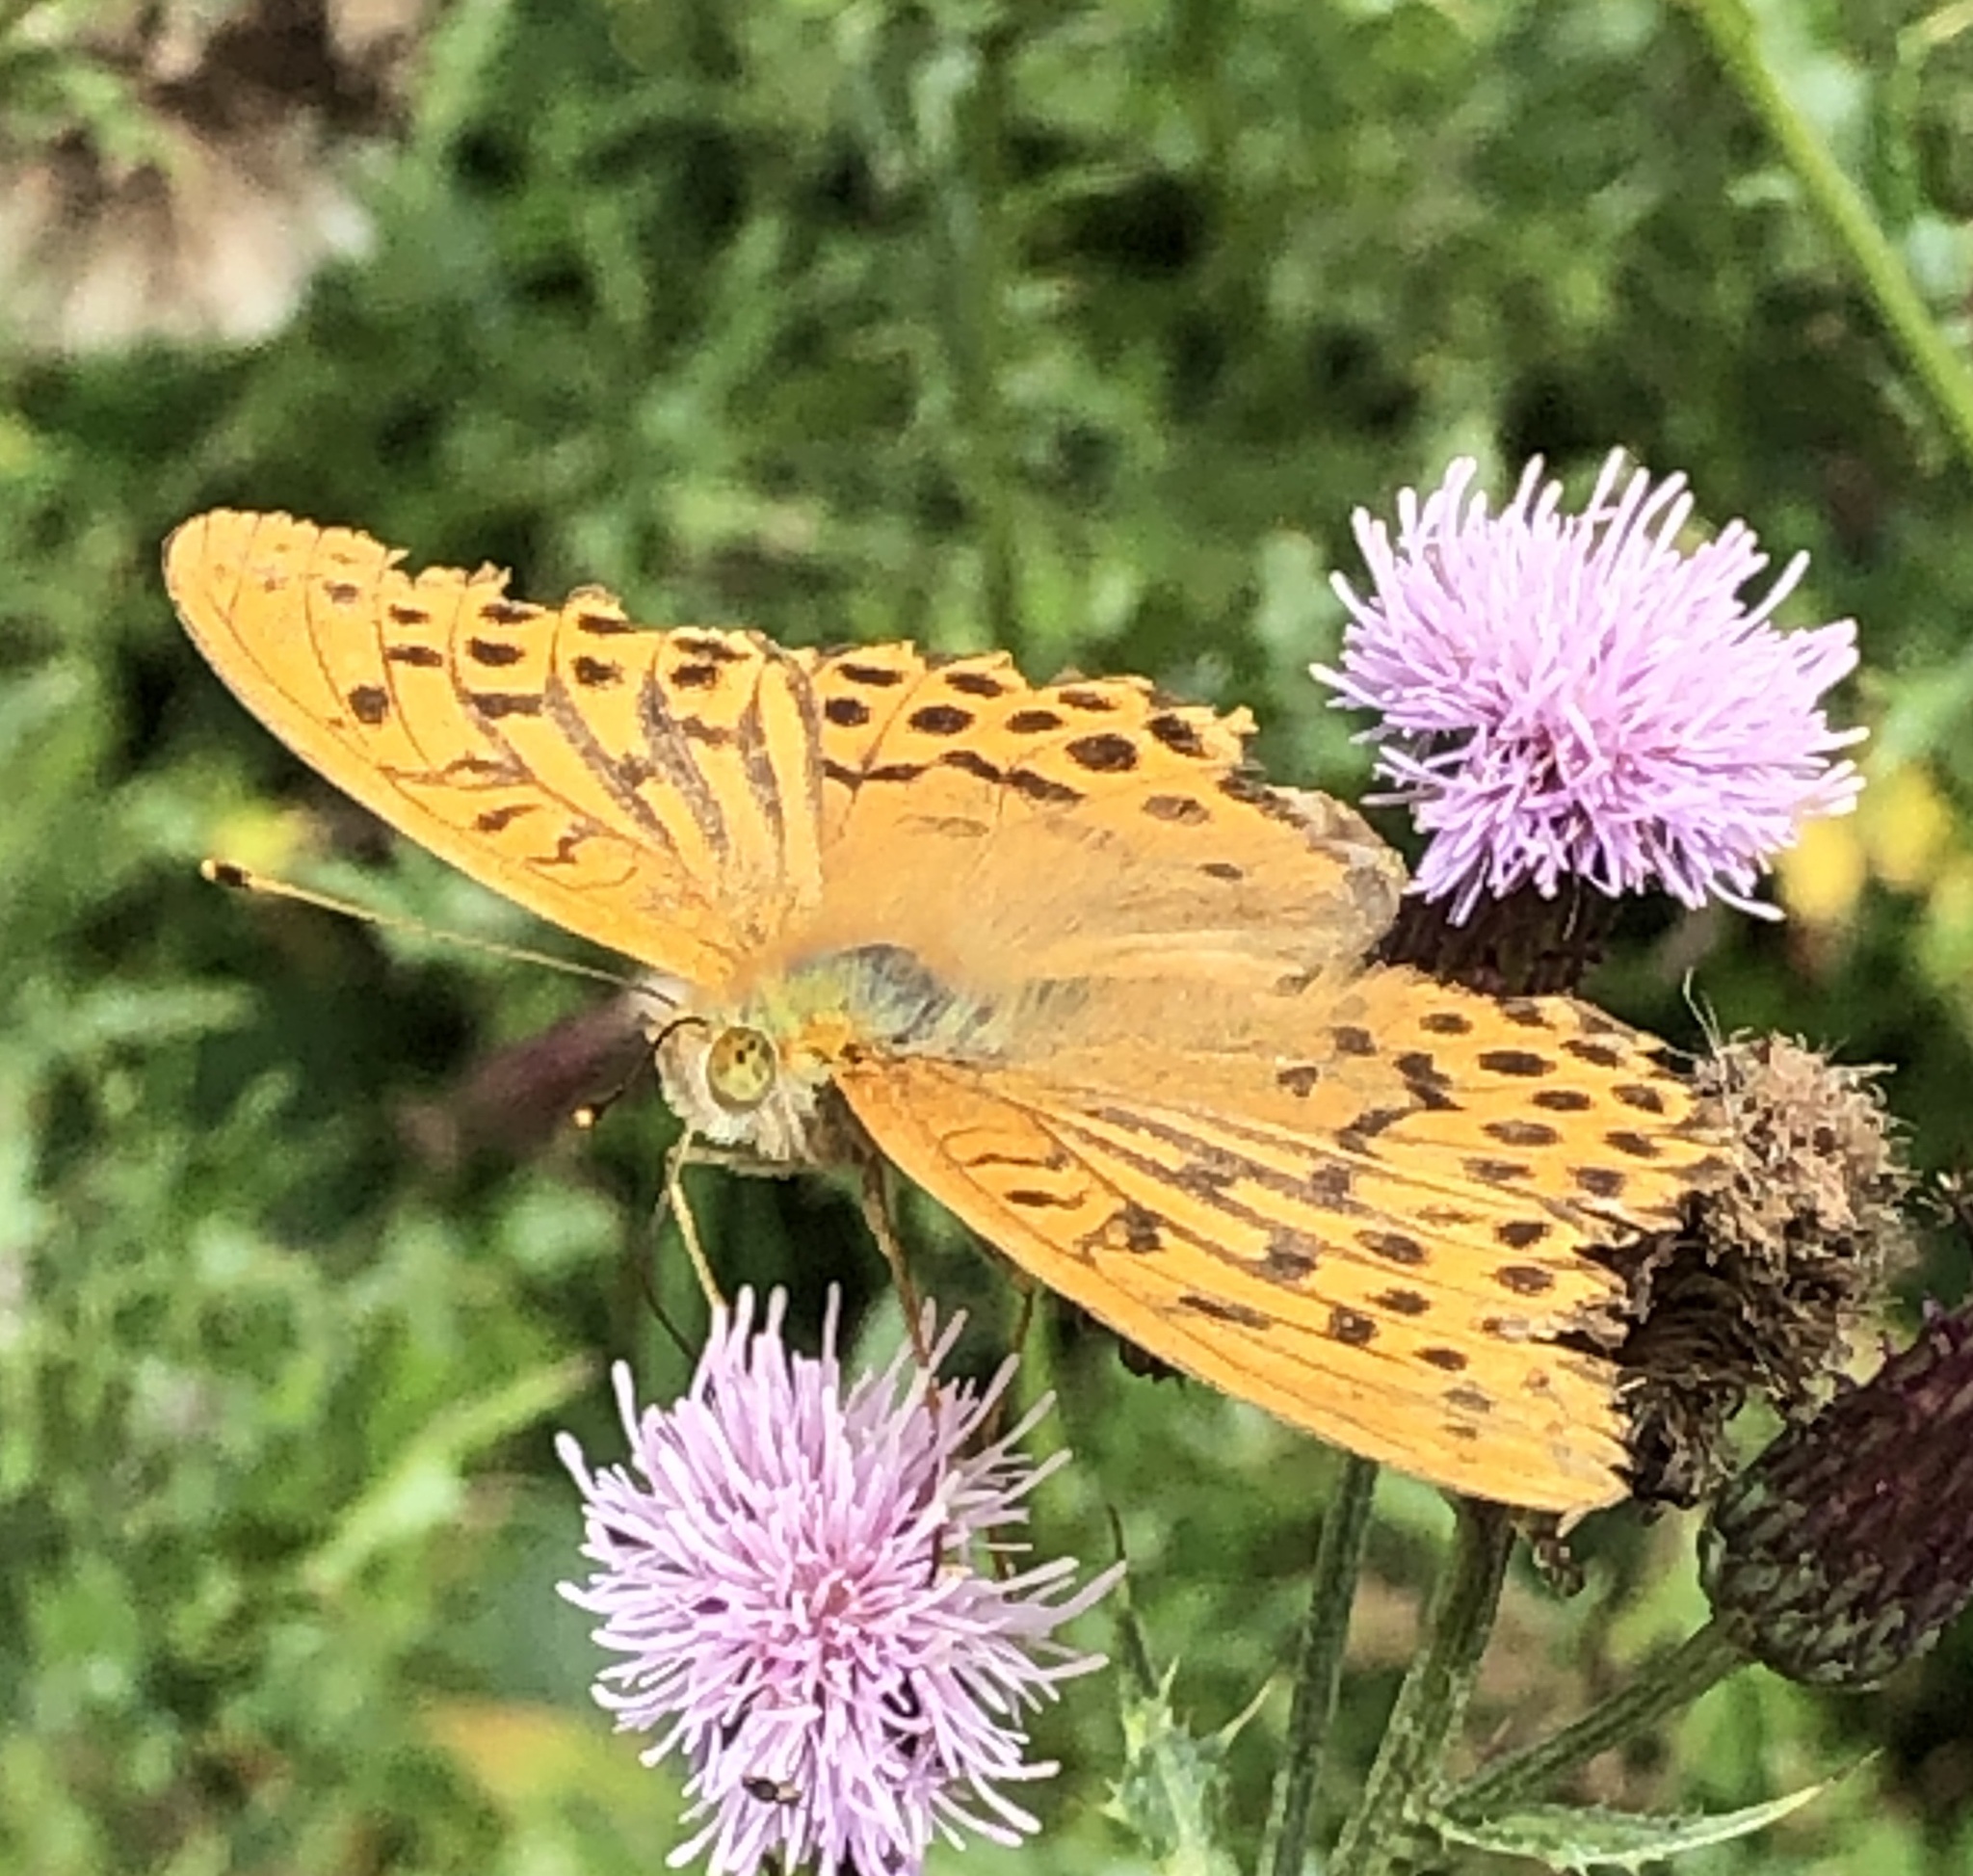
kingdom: Animalia
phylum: Arthropoda
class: Insecta
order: Lepidoptera
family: Nymphalidae
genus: Argynnis
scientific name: Argynnis paphia
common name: Silver-washed fritillary
